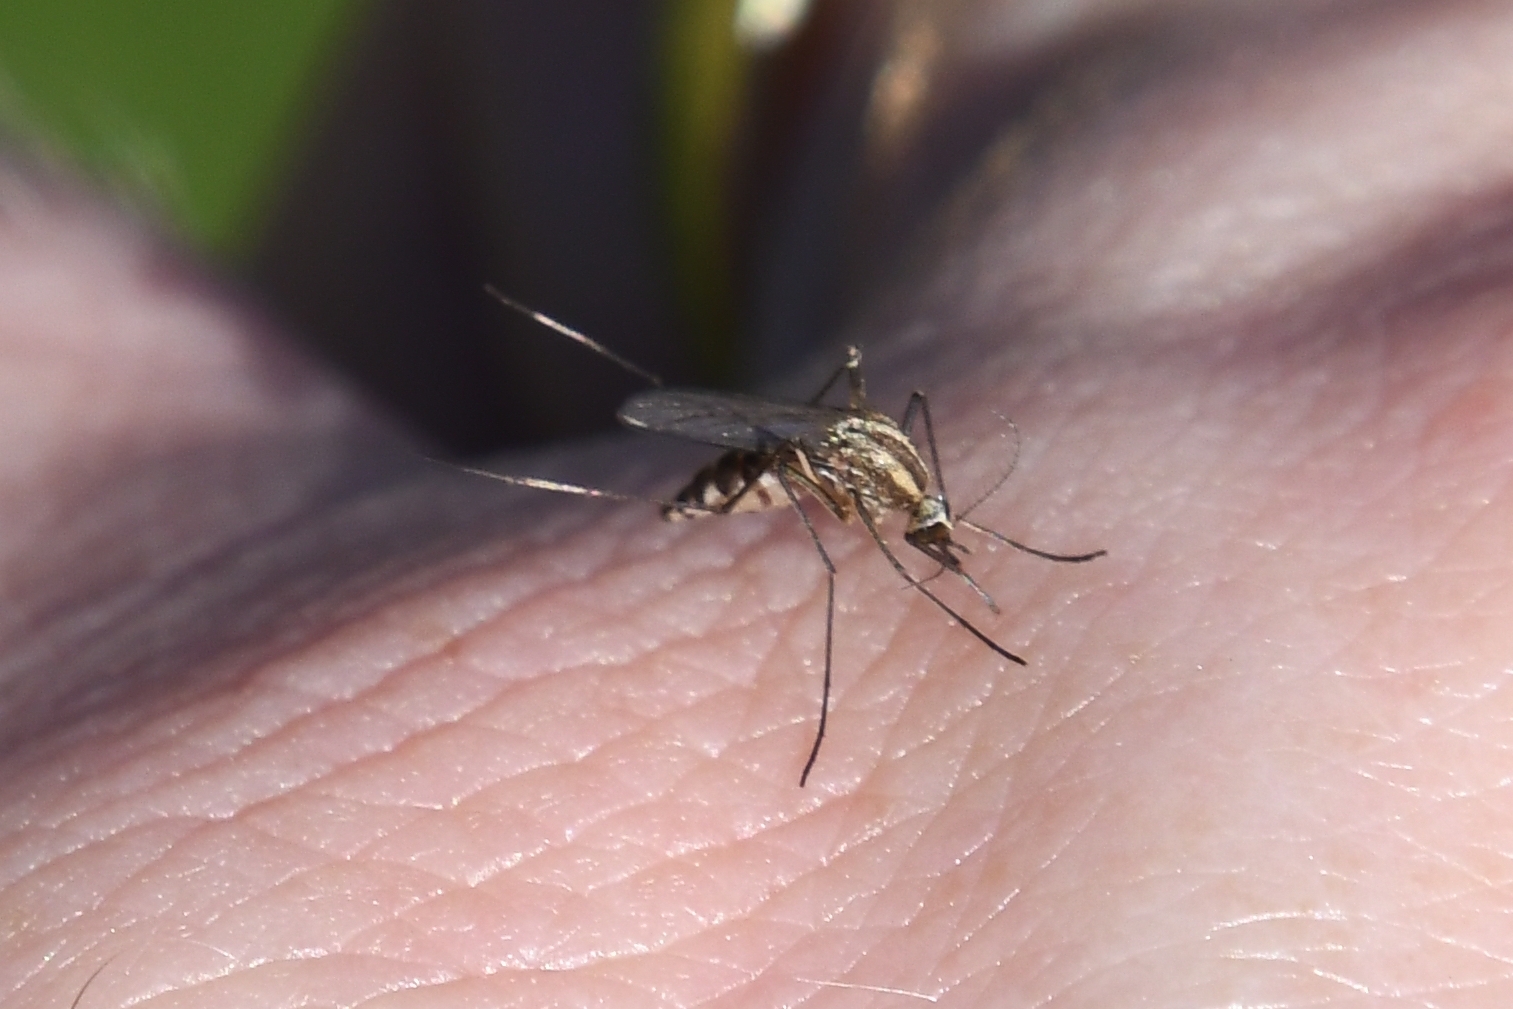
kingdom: Animalia
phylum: Arthropoda
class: Insecta
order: Diptera
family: Culicidae
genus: Aedes
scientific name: Aedes trivittatus
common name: Plains floodwater mosquito
